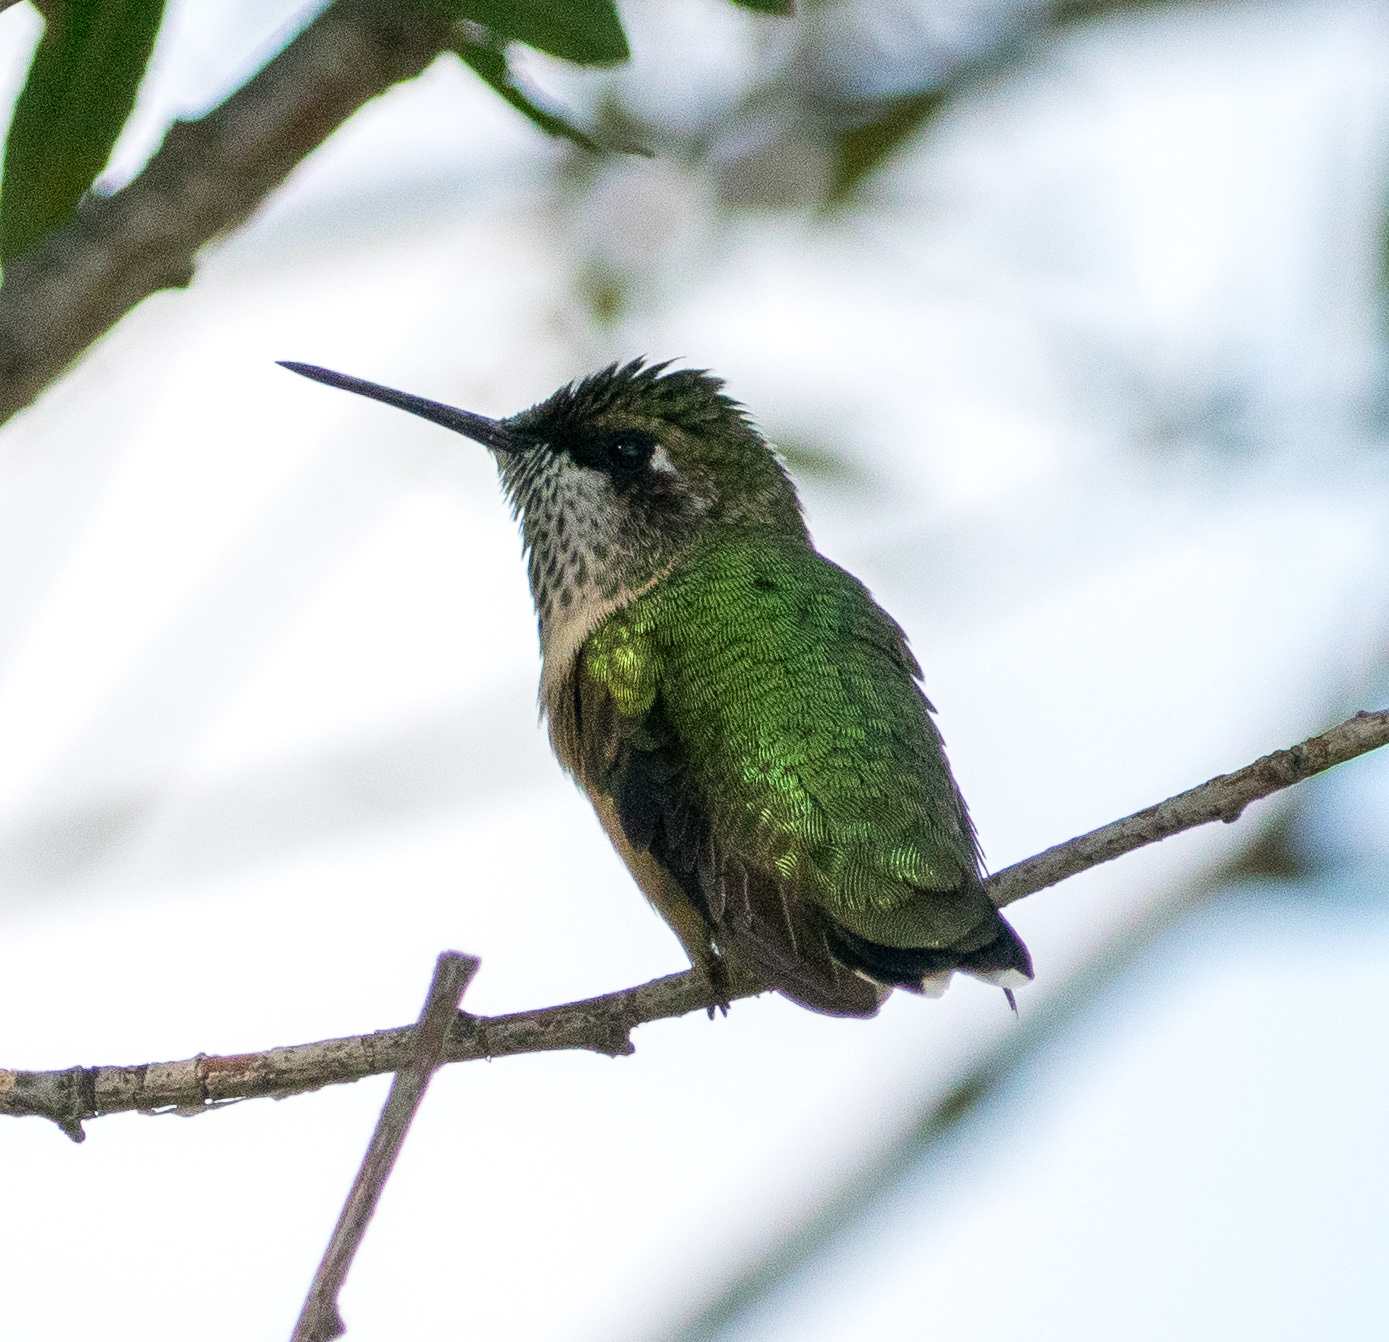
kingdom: Animalia
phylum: Chordata
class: Aves
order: Apodiformes
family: Trochilidae
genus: Archilochus
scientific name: Archilochus colubris
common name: Ruby-throated hummingbird
